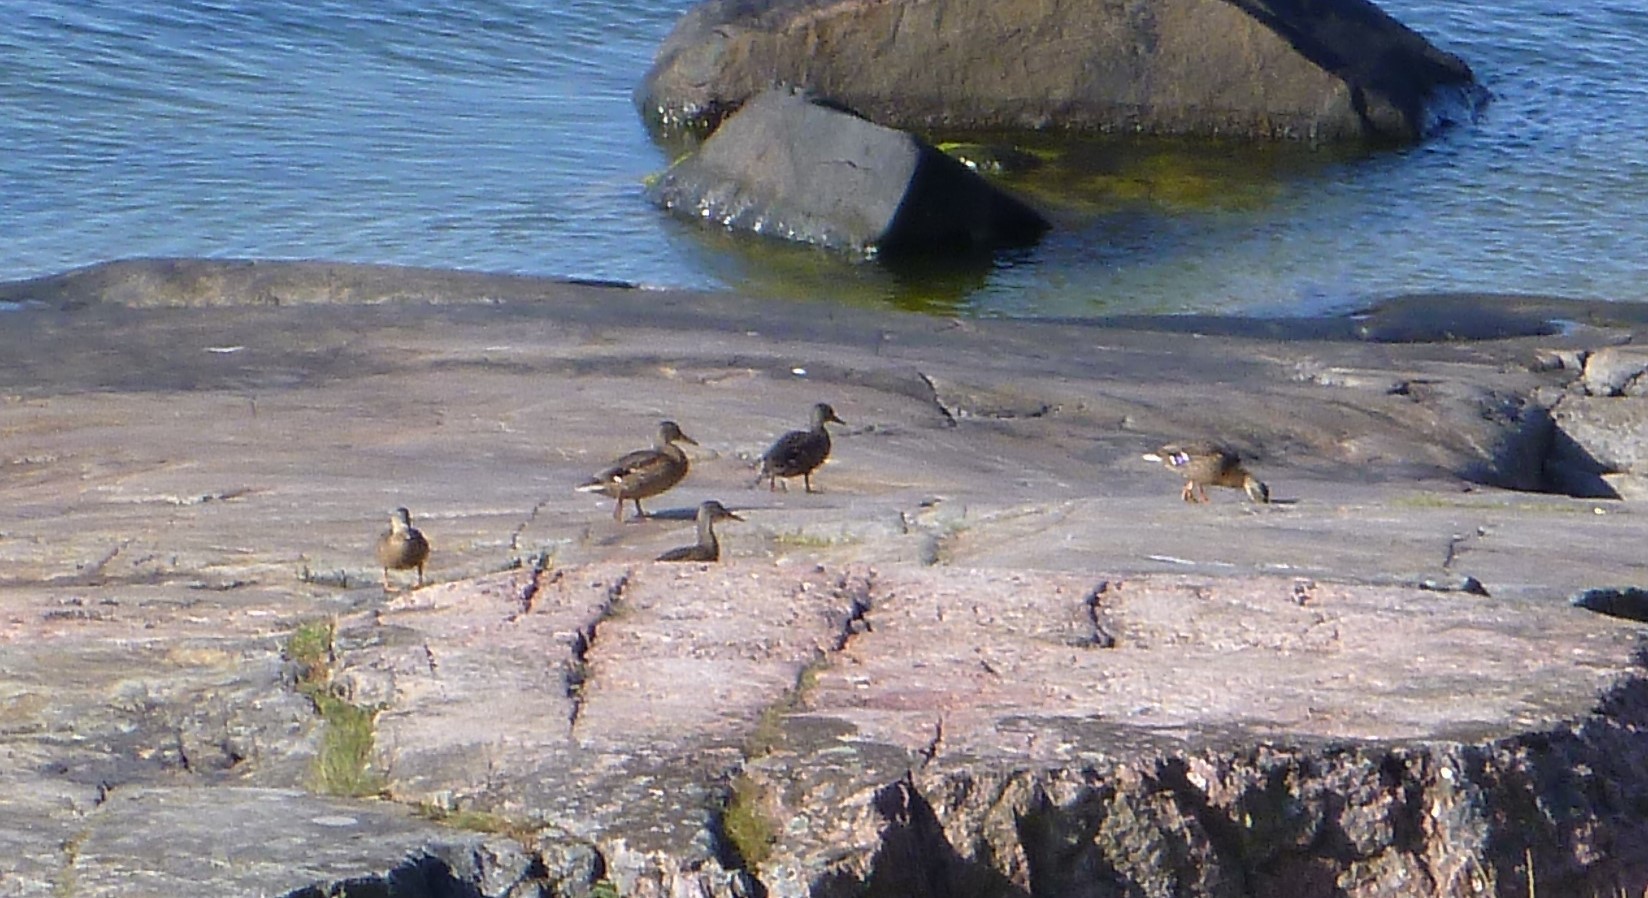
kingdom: Animalia
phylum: Chordata
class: Aves
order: Anseriformes
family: Anatidae
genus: Anas
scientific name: Anas platyrhynchos
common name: Mallard
